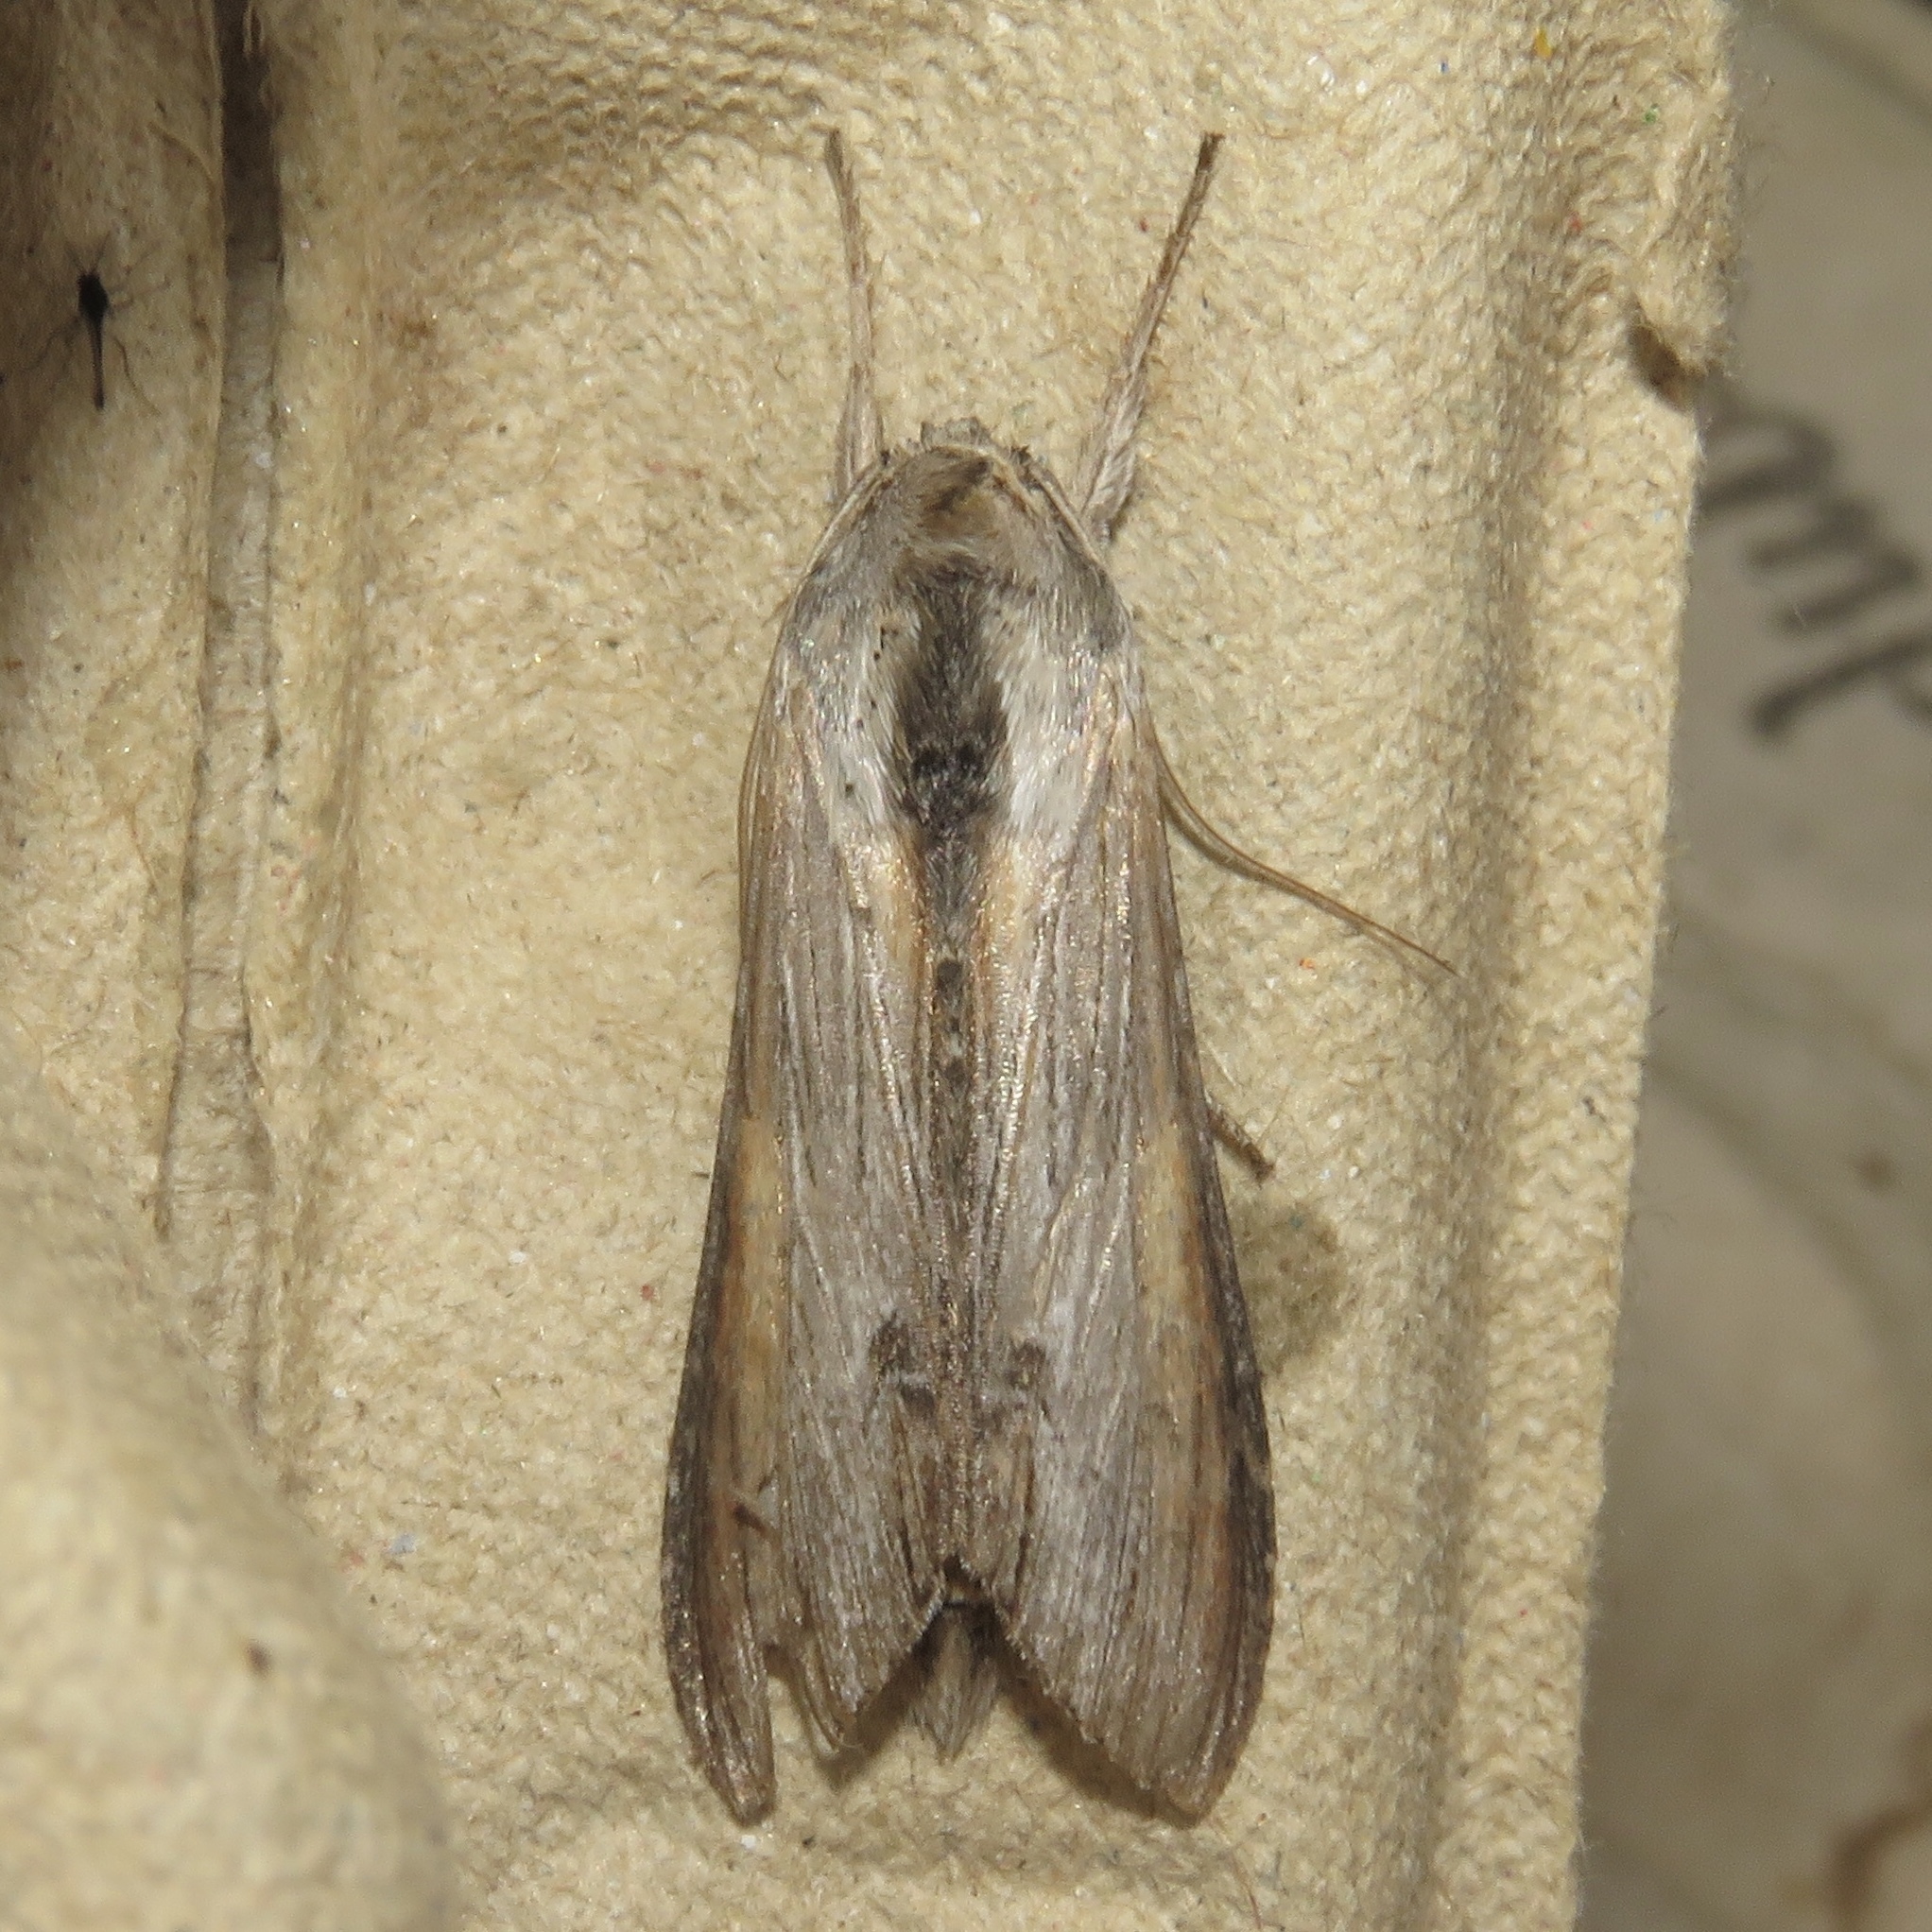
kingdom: Animalia
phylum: Arthropoda
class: Insecta
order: Lepidoptera
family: Noctuidae
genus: Cucullia
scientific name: Cucullia asteroides
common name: Asteroid moth
